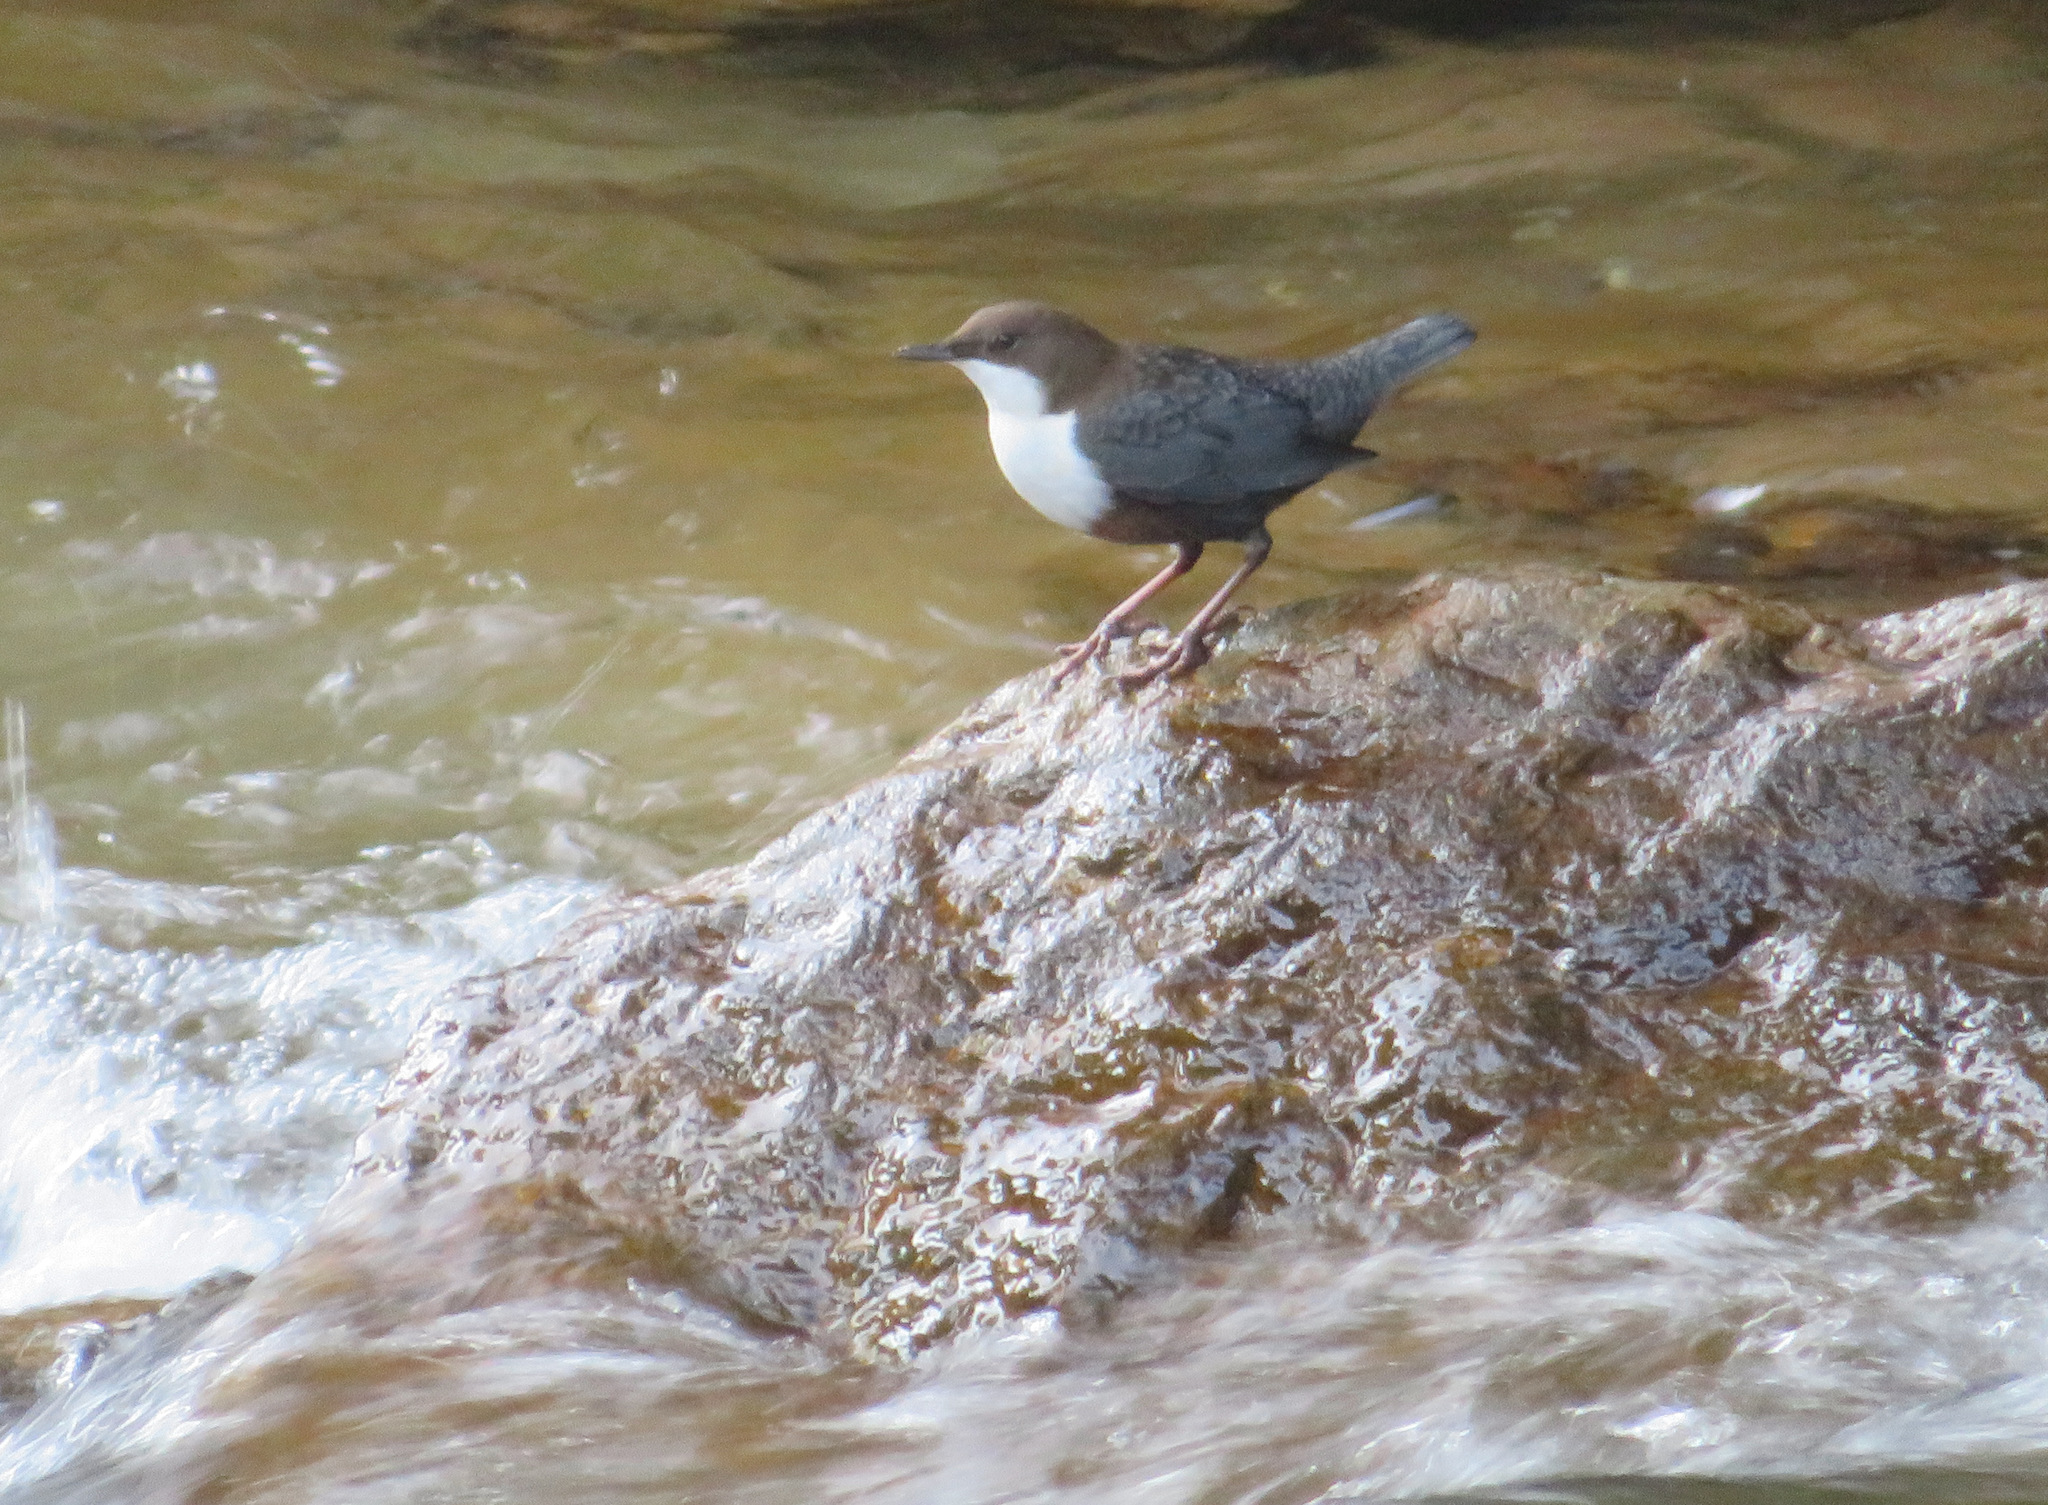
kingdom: Animalia
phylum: Chordata
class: Aves
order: Passeriformes
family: Cinclidae
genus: Cinclus
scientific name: Cinclus cinclus
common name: White-throated dipper
